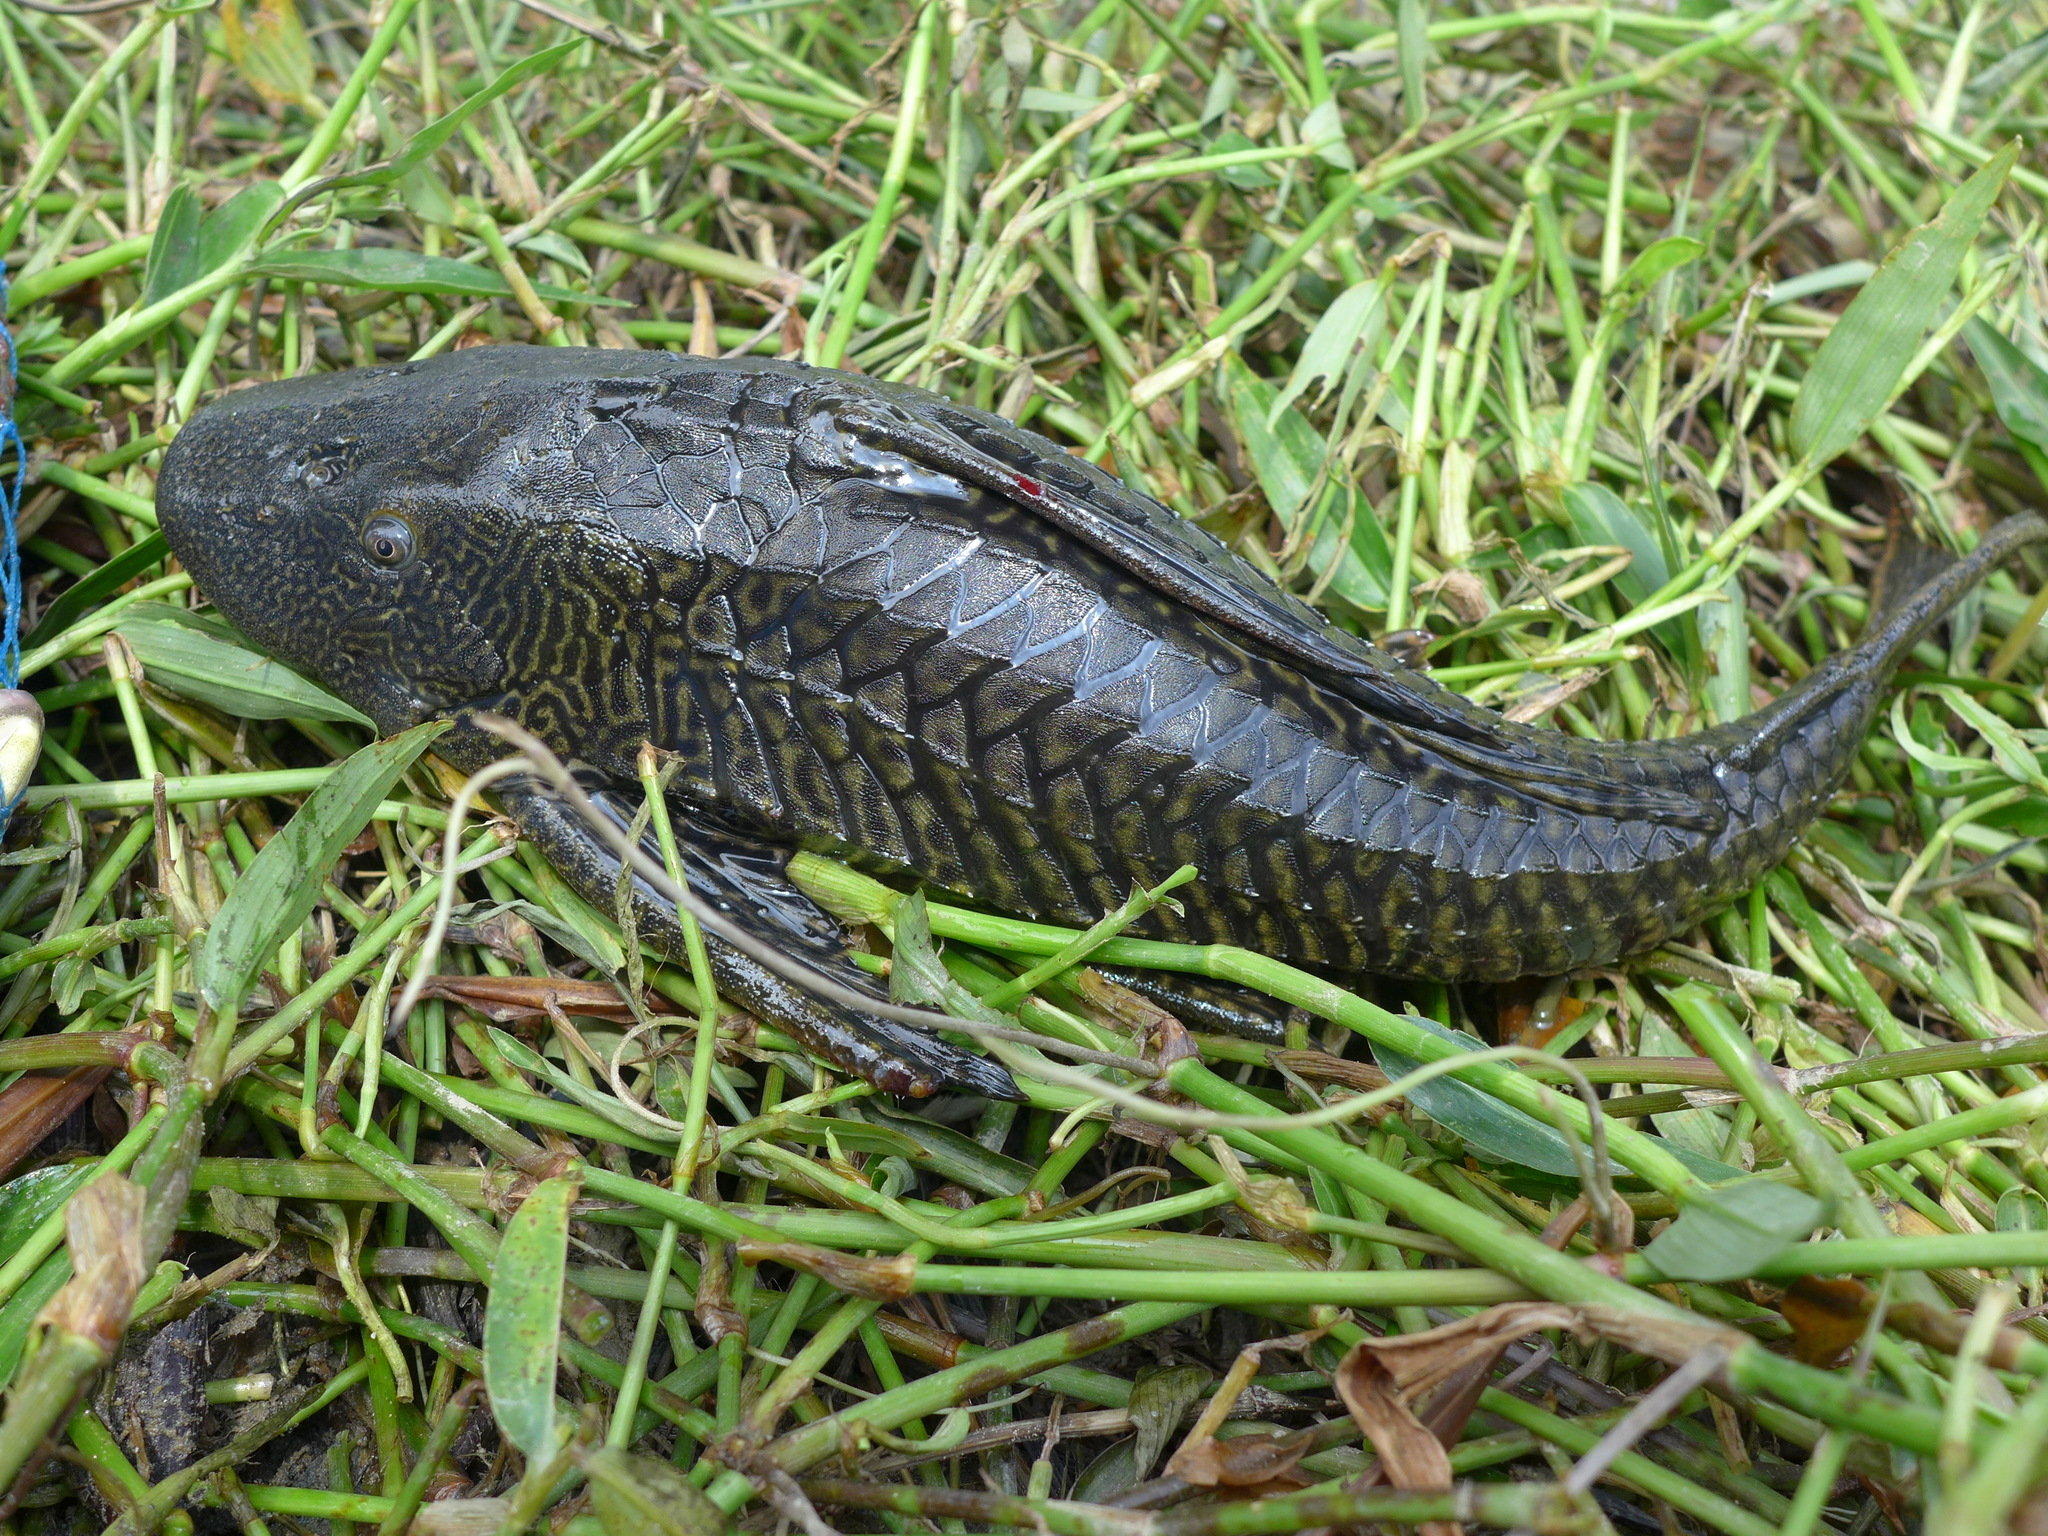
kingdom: Animalia
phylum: Chordata
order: Siluriformes
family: Loricariidae
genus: Pterygoplichthys
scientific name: Pterygoplichthys
